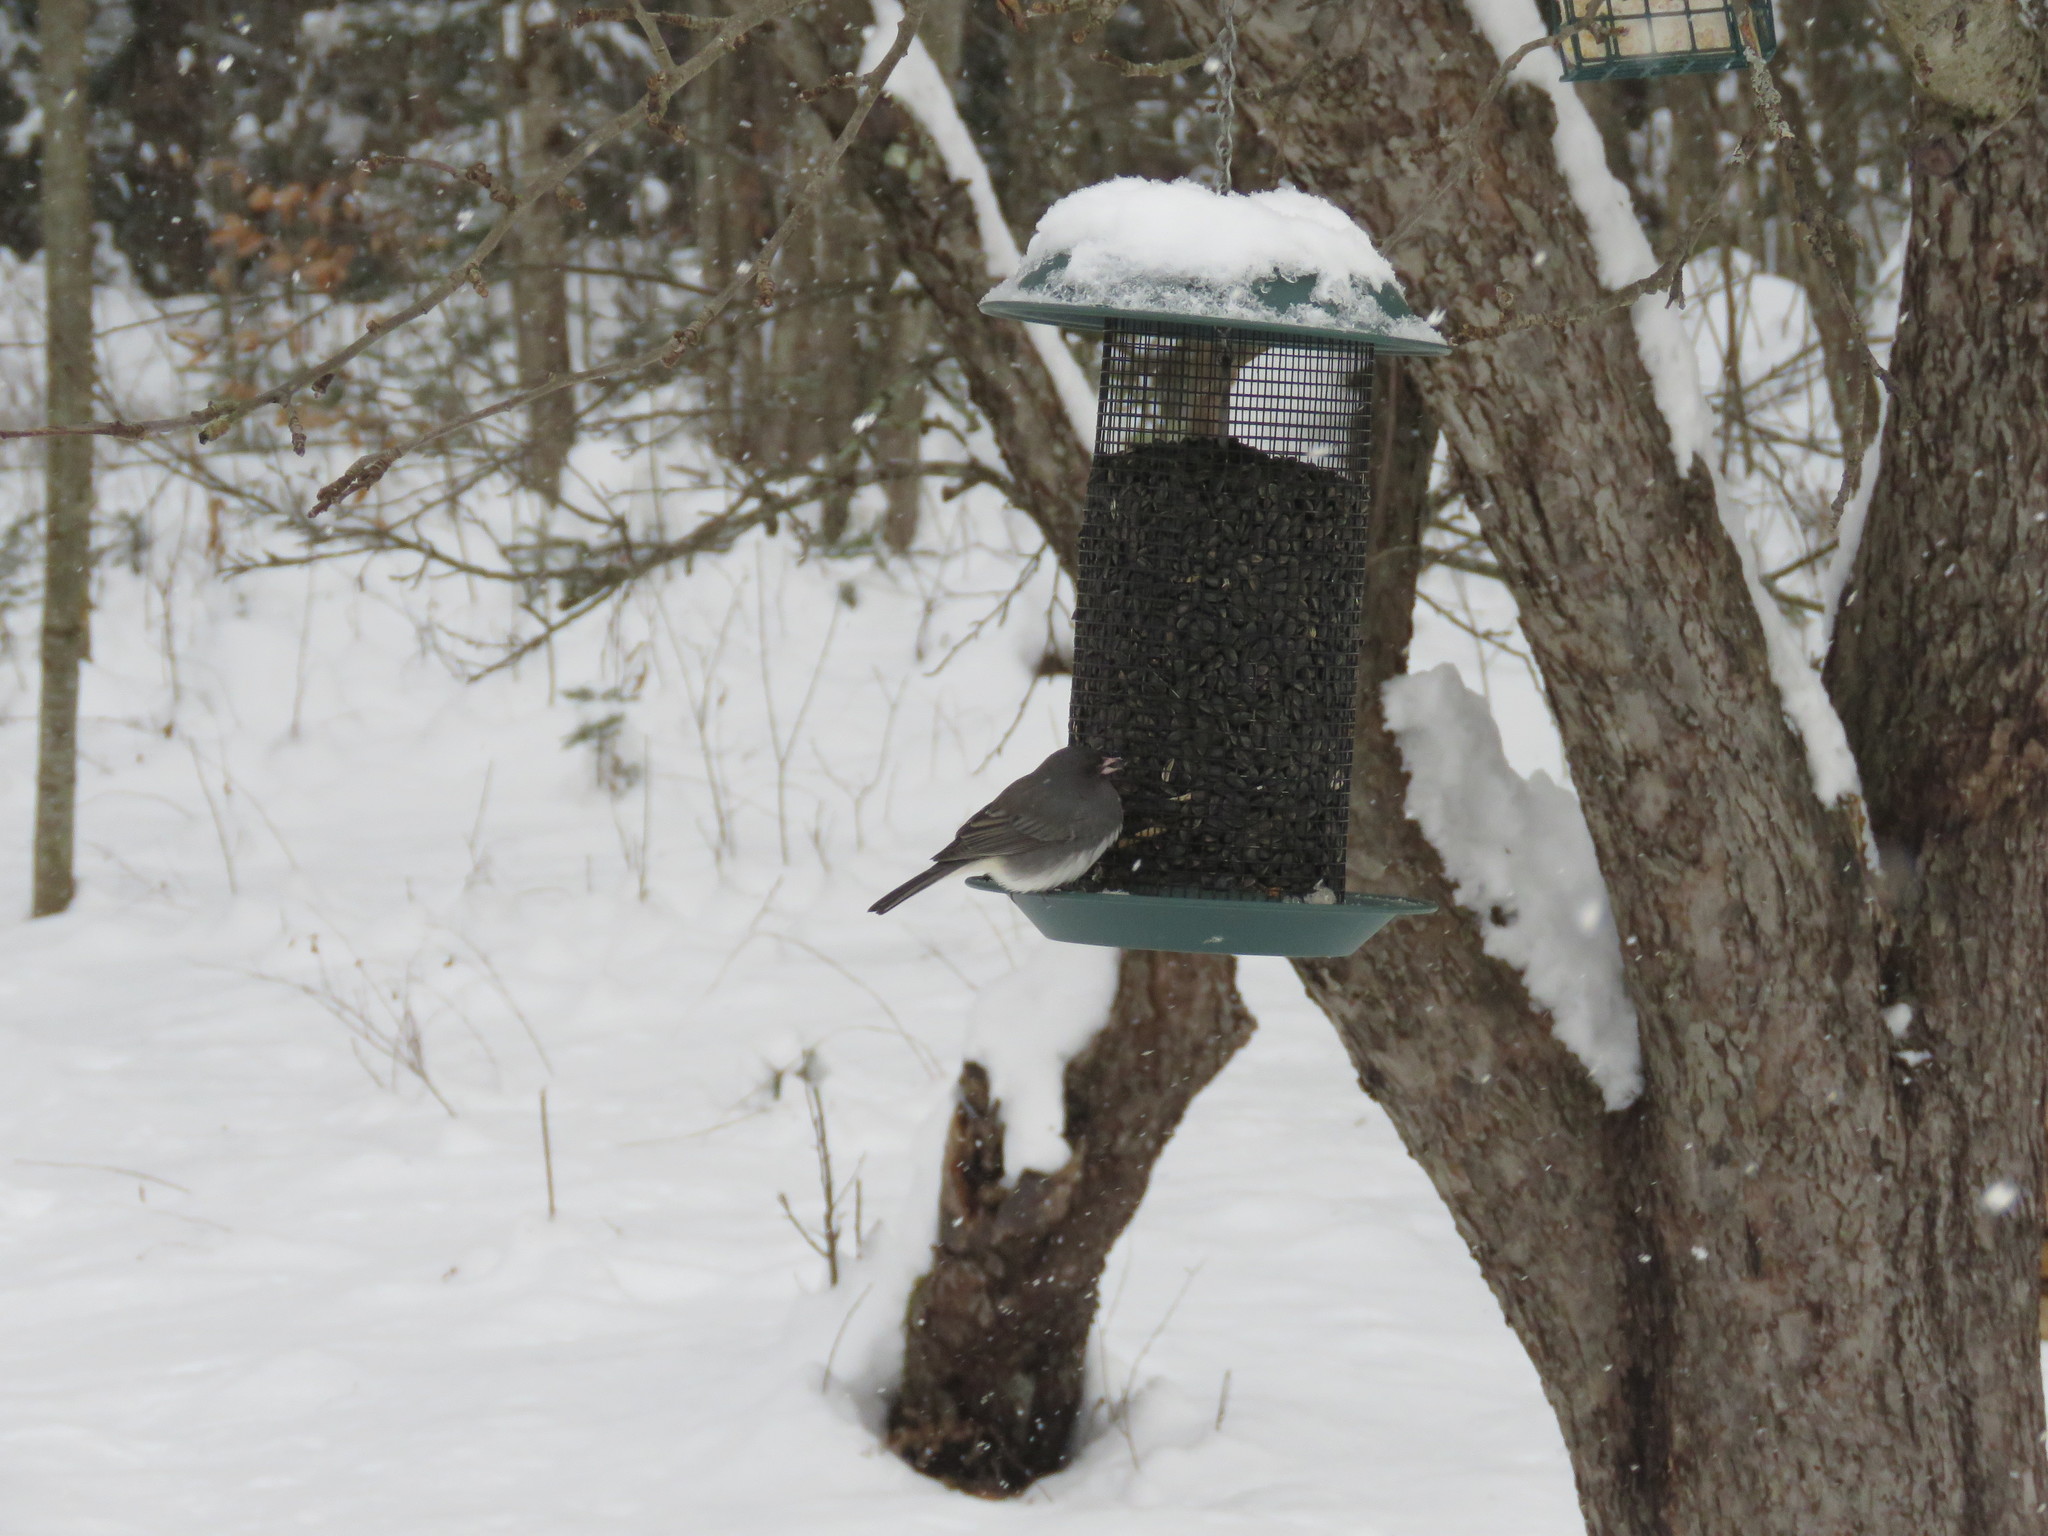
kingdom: Animalia
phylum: Chordata
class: Aves
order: Passeriformes
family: Passerellidae
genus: Junco
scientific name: Junco hyemalis
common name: Dark-eyed junco
